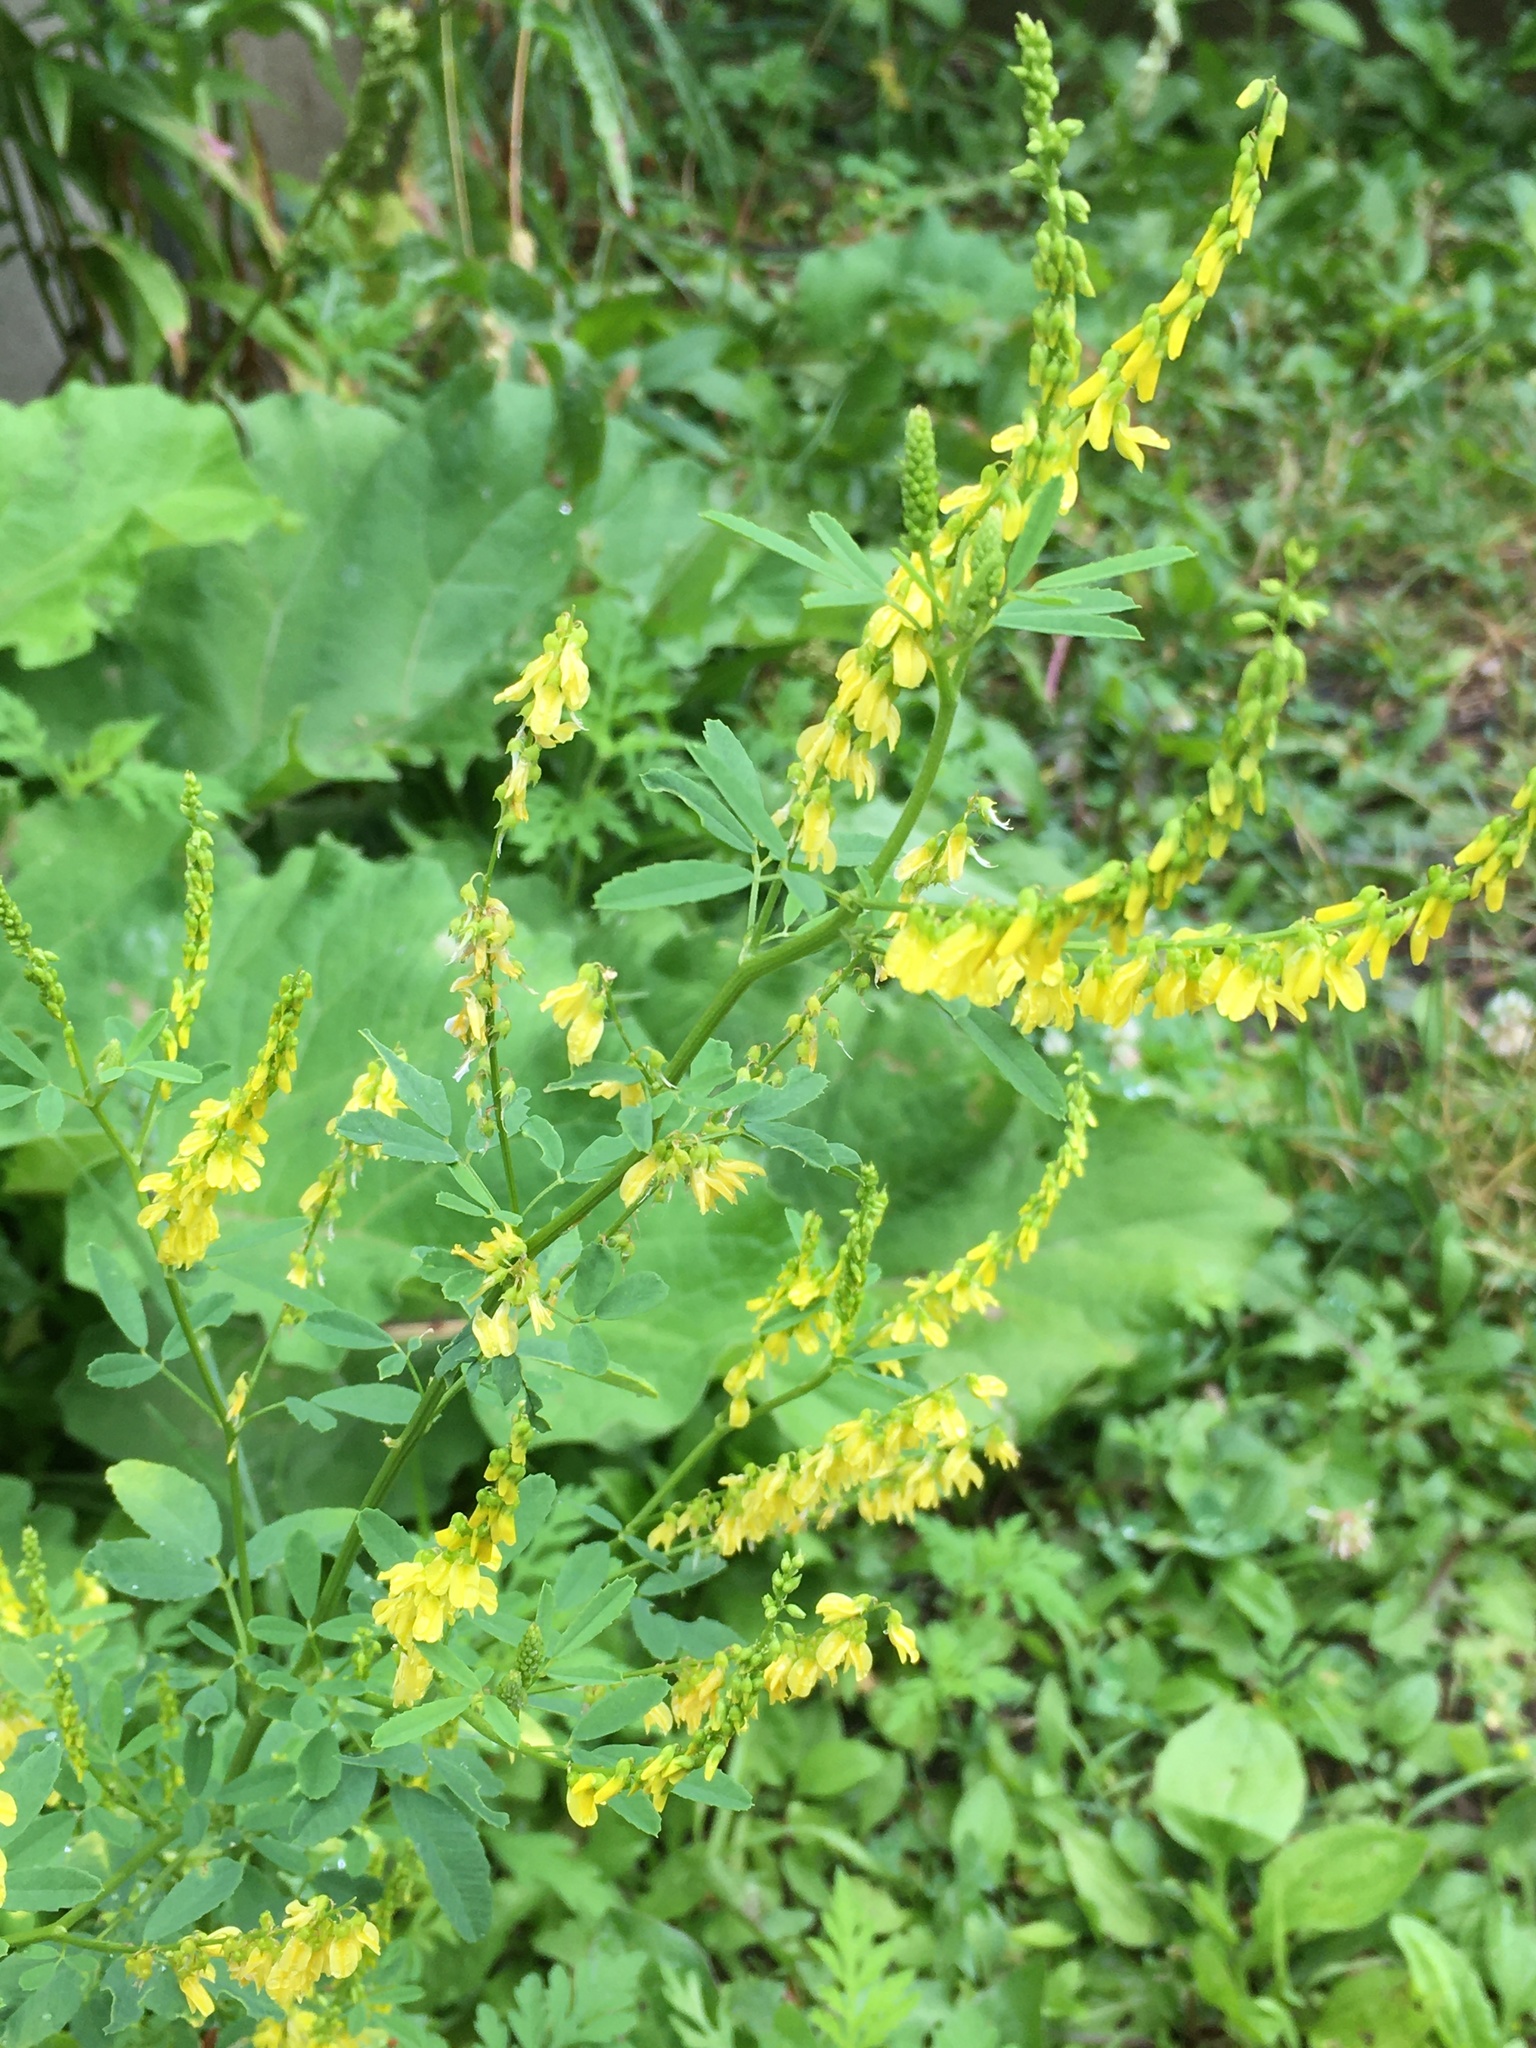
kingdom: Plantae
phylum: Tracheophyta
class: Magnoliopsida
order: Fabales
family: Fabaceae
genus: Melilotus
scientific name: Melilotus officinalis
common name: Sweetclover
